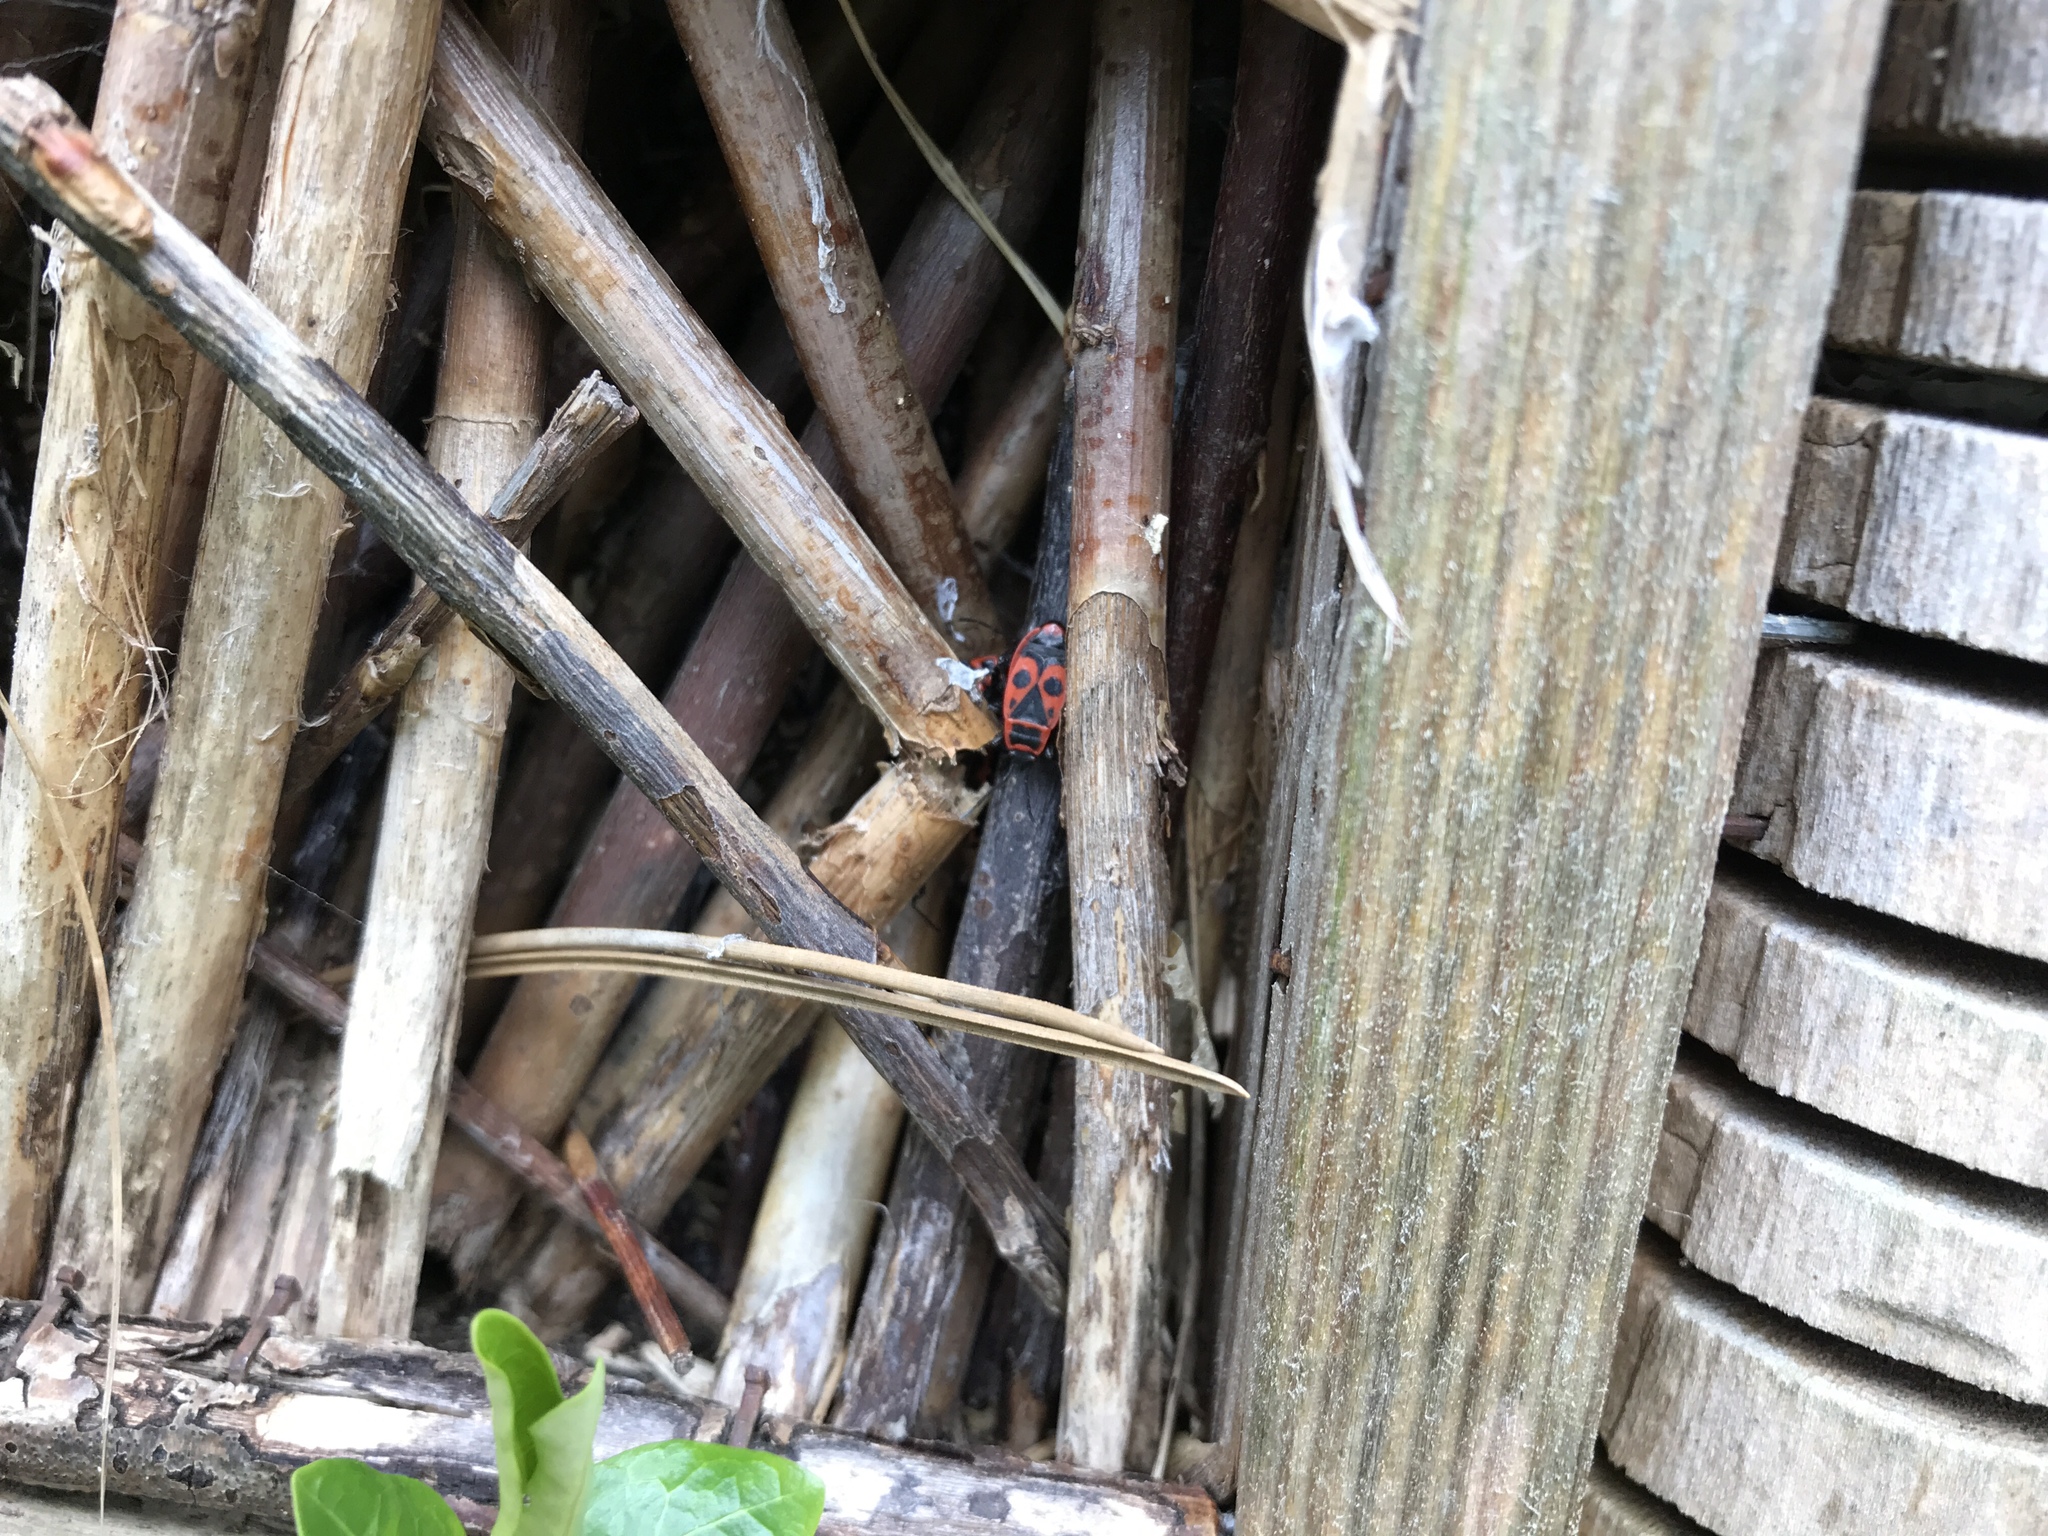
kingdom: Animalia
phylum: Arthropoda
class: Insecta
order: Hemiptera
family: Pyrrhocoridae
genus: Pyrrhocoris
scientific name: Pyrrhocoris apterus
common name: Firebug
